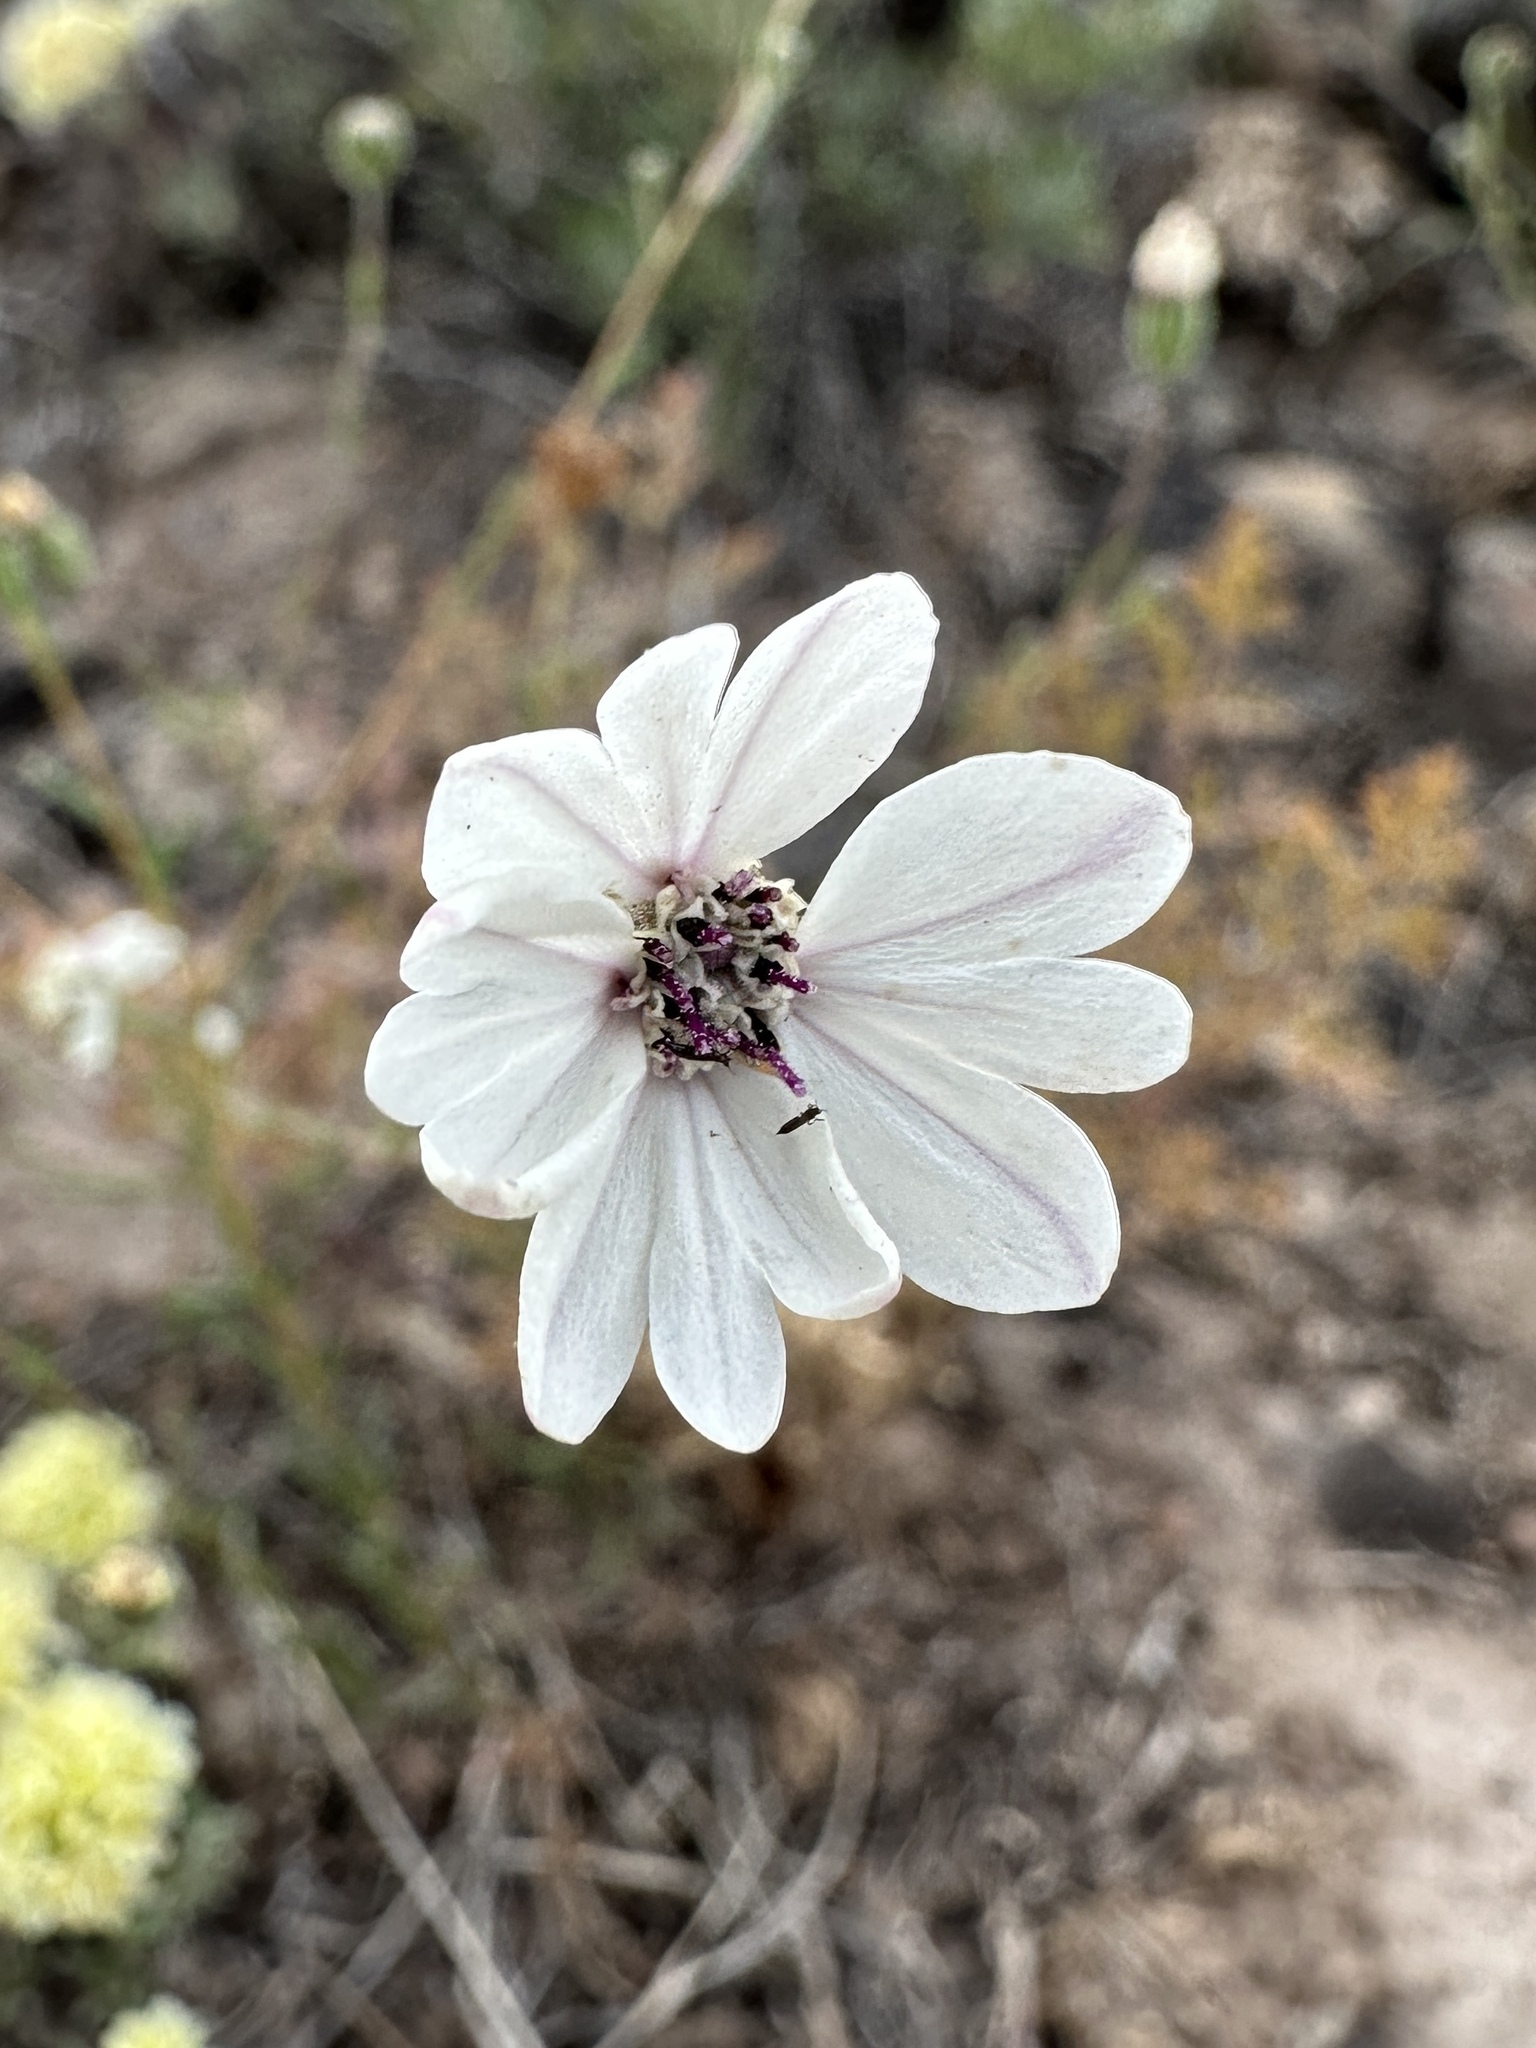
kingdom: Plantae
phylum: Tracheophyta
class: Magnoliopsida
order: Asterales
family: Asteraceae
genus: Blepharipappus
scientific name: Blepharipappus scaber
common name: Rough blepharipappus
